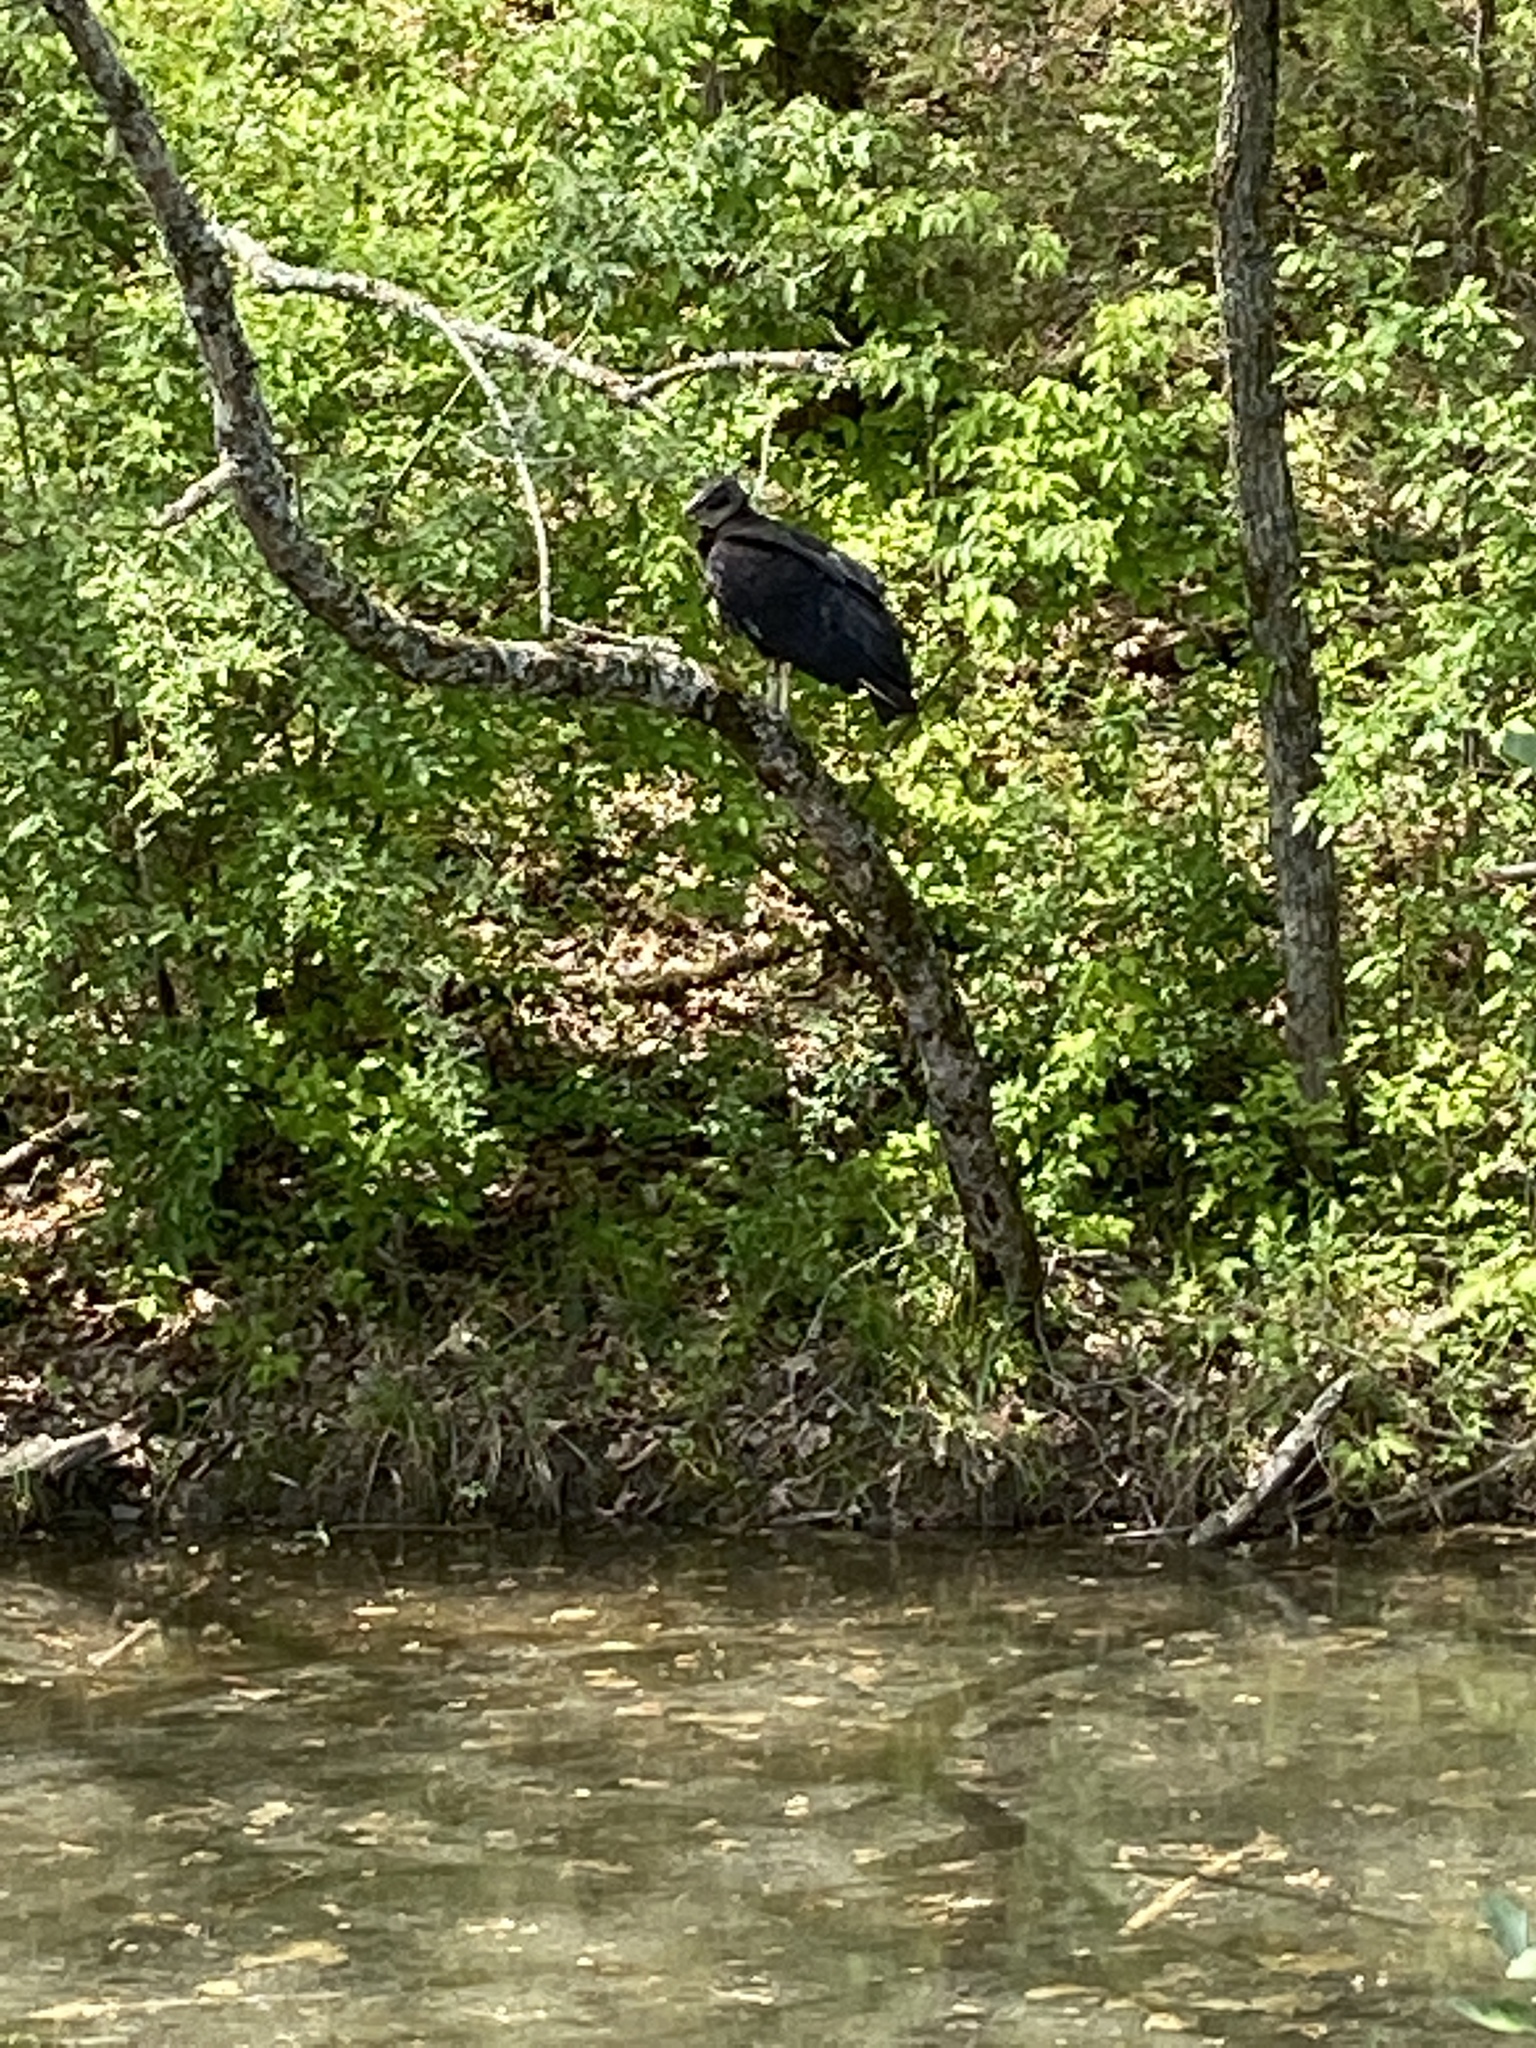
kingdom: Animalia
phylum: Chordata
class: Aves
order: Accipitriformes
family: Cathartidae
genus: Coragyps
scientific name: Coragyps atratus
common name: Black vulture
